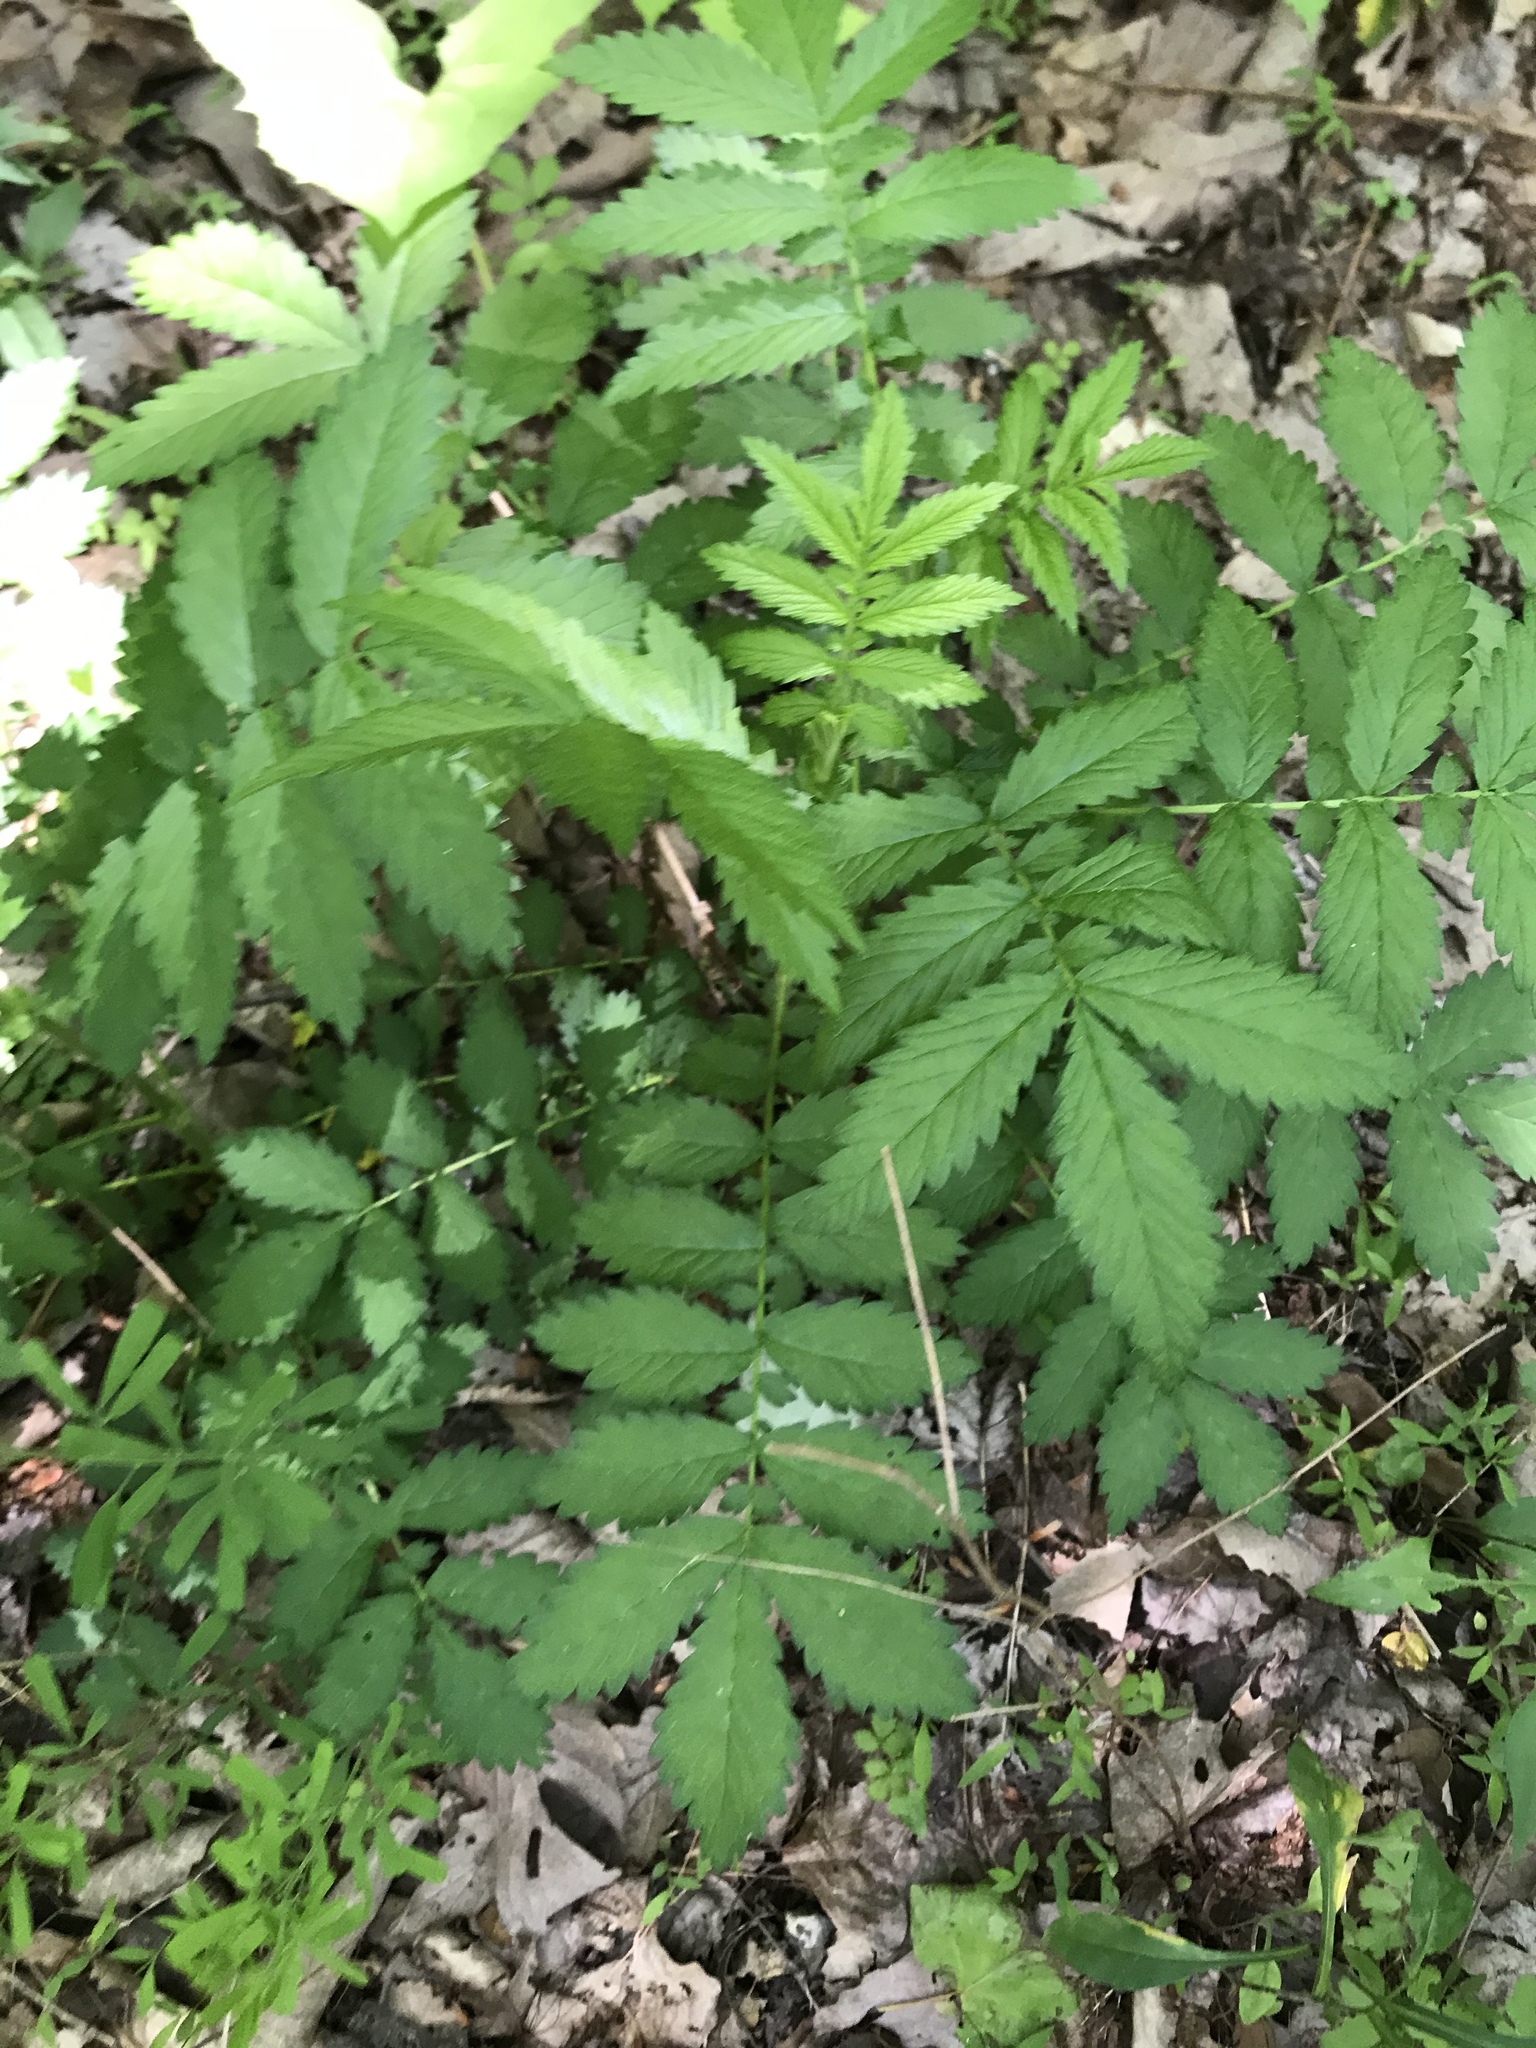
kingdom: Plantae
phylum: Tracheophyta
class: Magnoliopsida
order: Rosales
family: Rosaceae
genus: Agrimonia
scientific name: Agrimonia parviflora
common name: Harvest-lice
